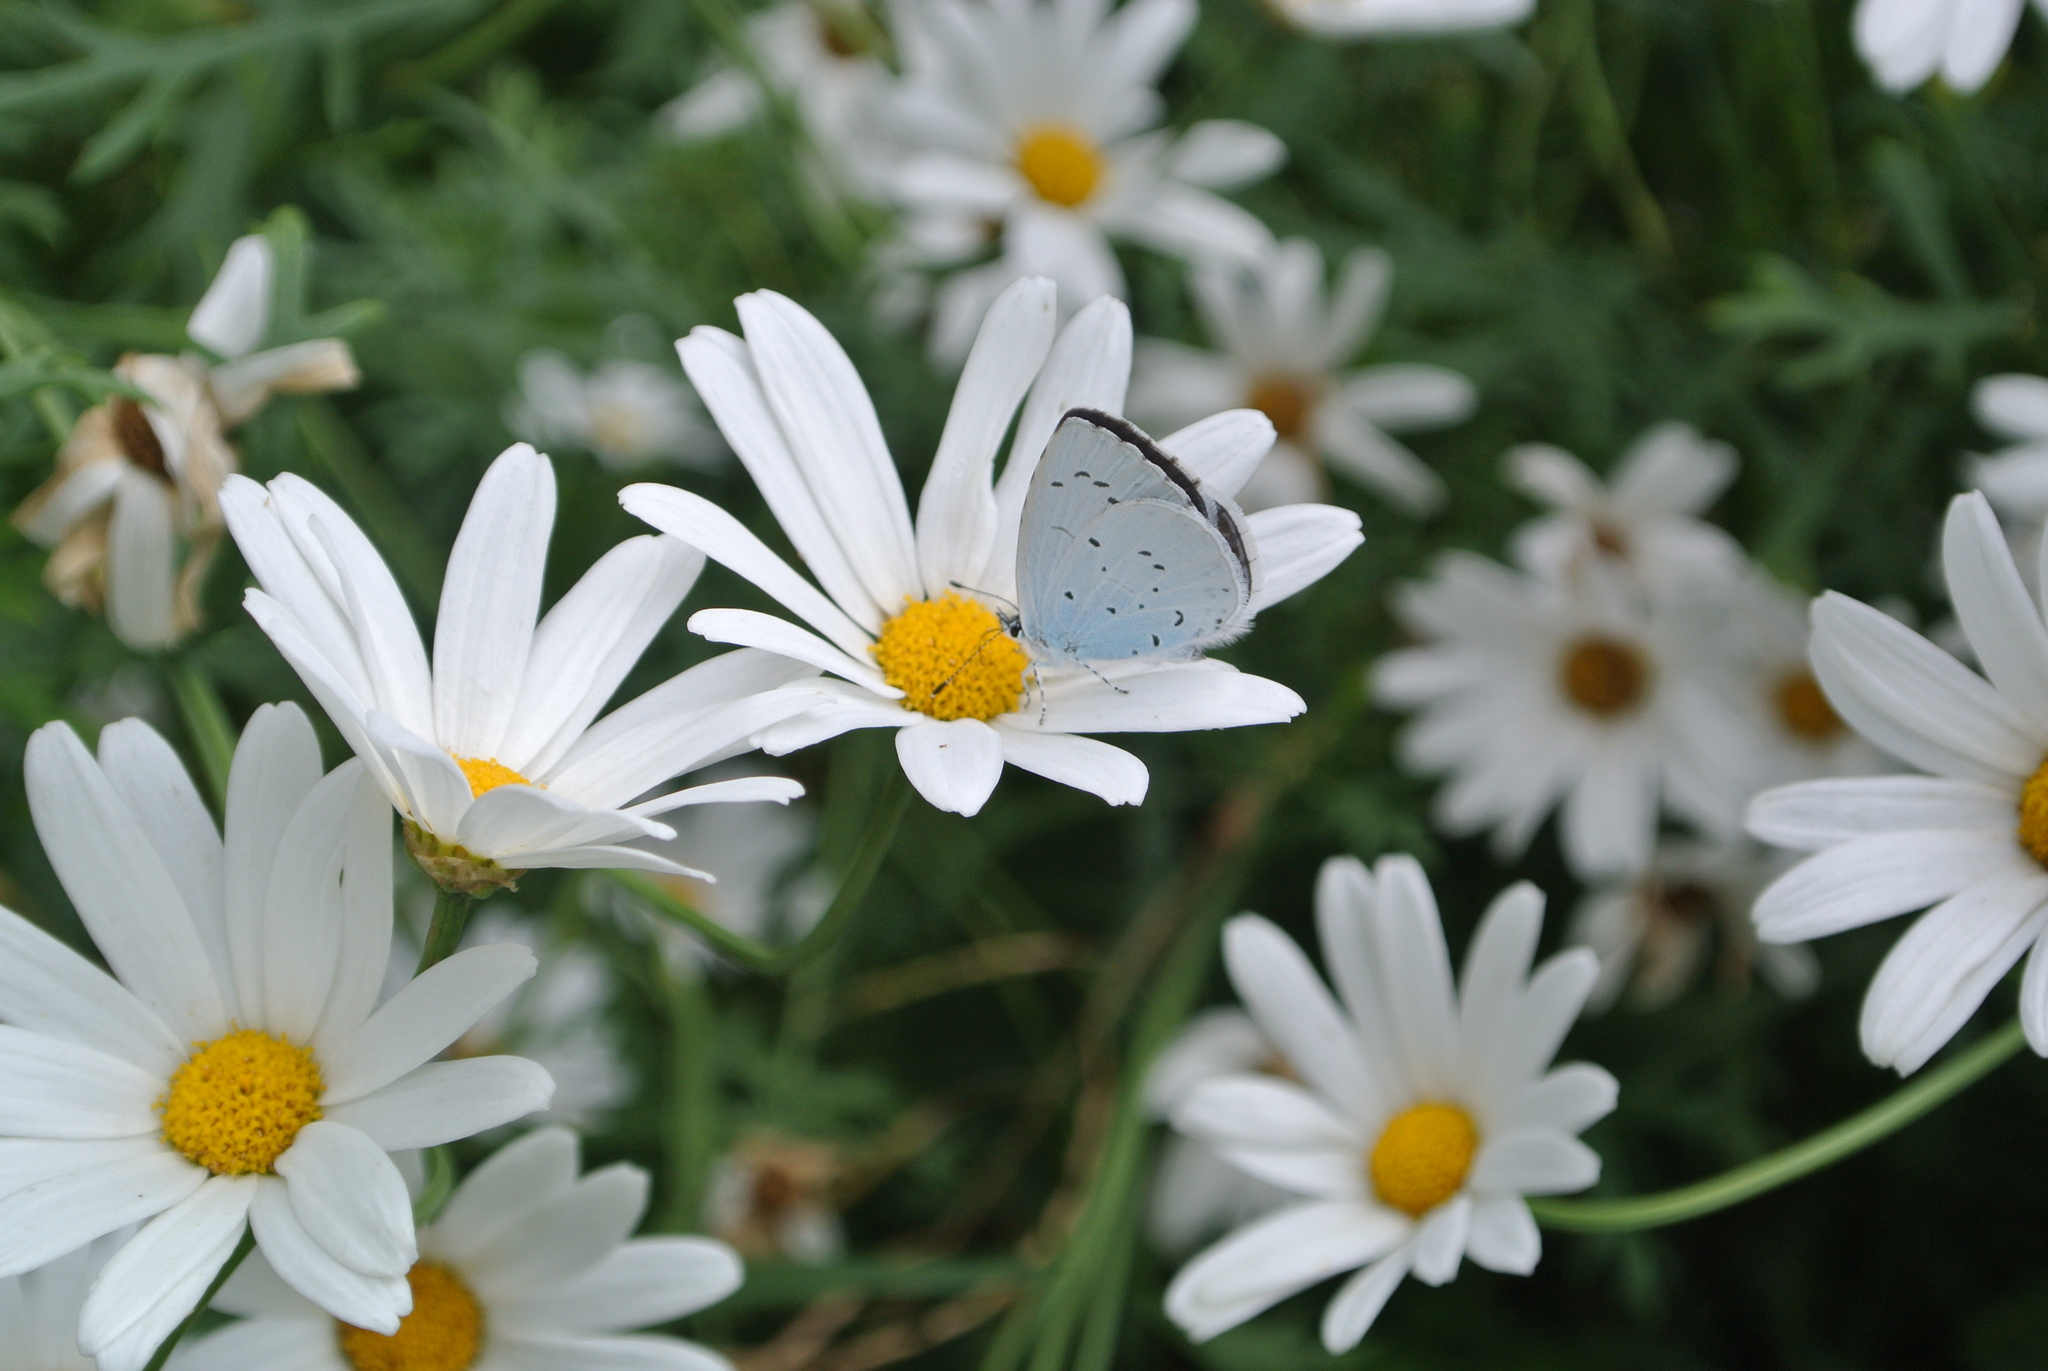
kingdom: Animalia
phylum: Arthropoda
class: Insecta
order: Lepidoptera
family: Lycaenidae
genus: Celastrina
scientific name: Celastrina argiolus
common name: Holly blue
